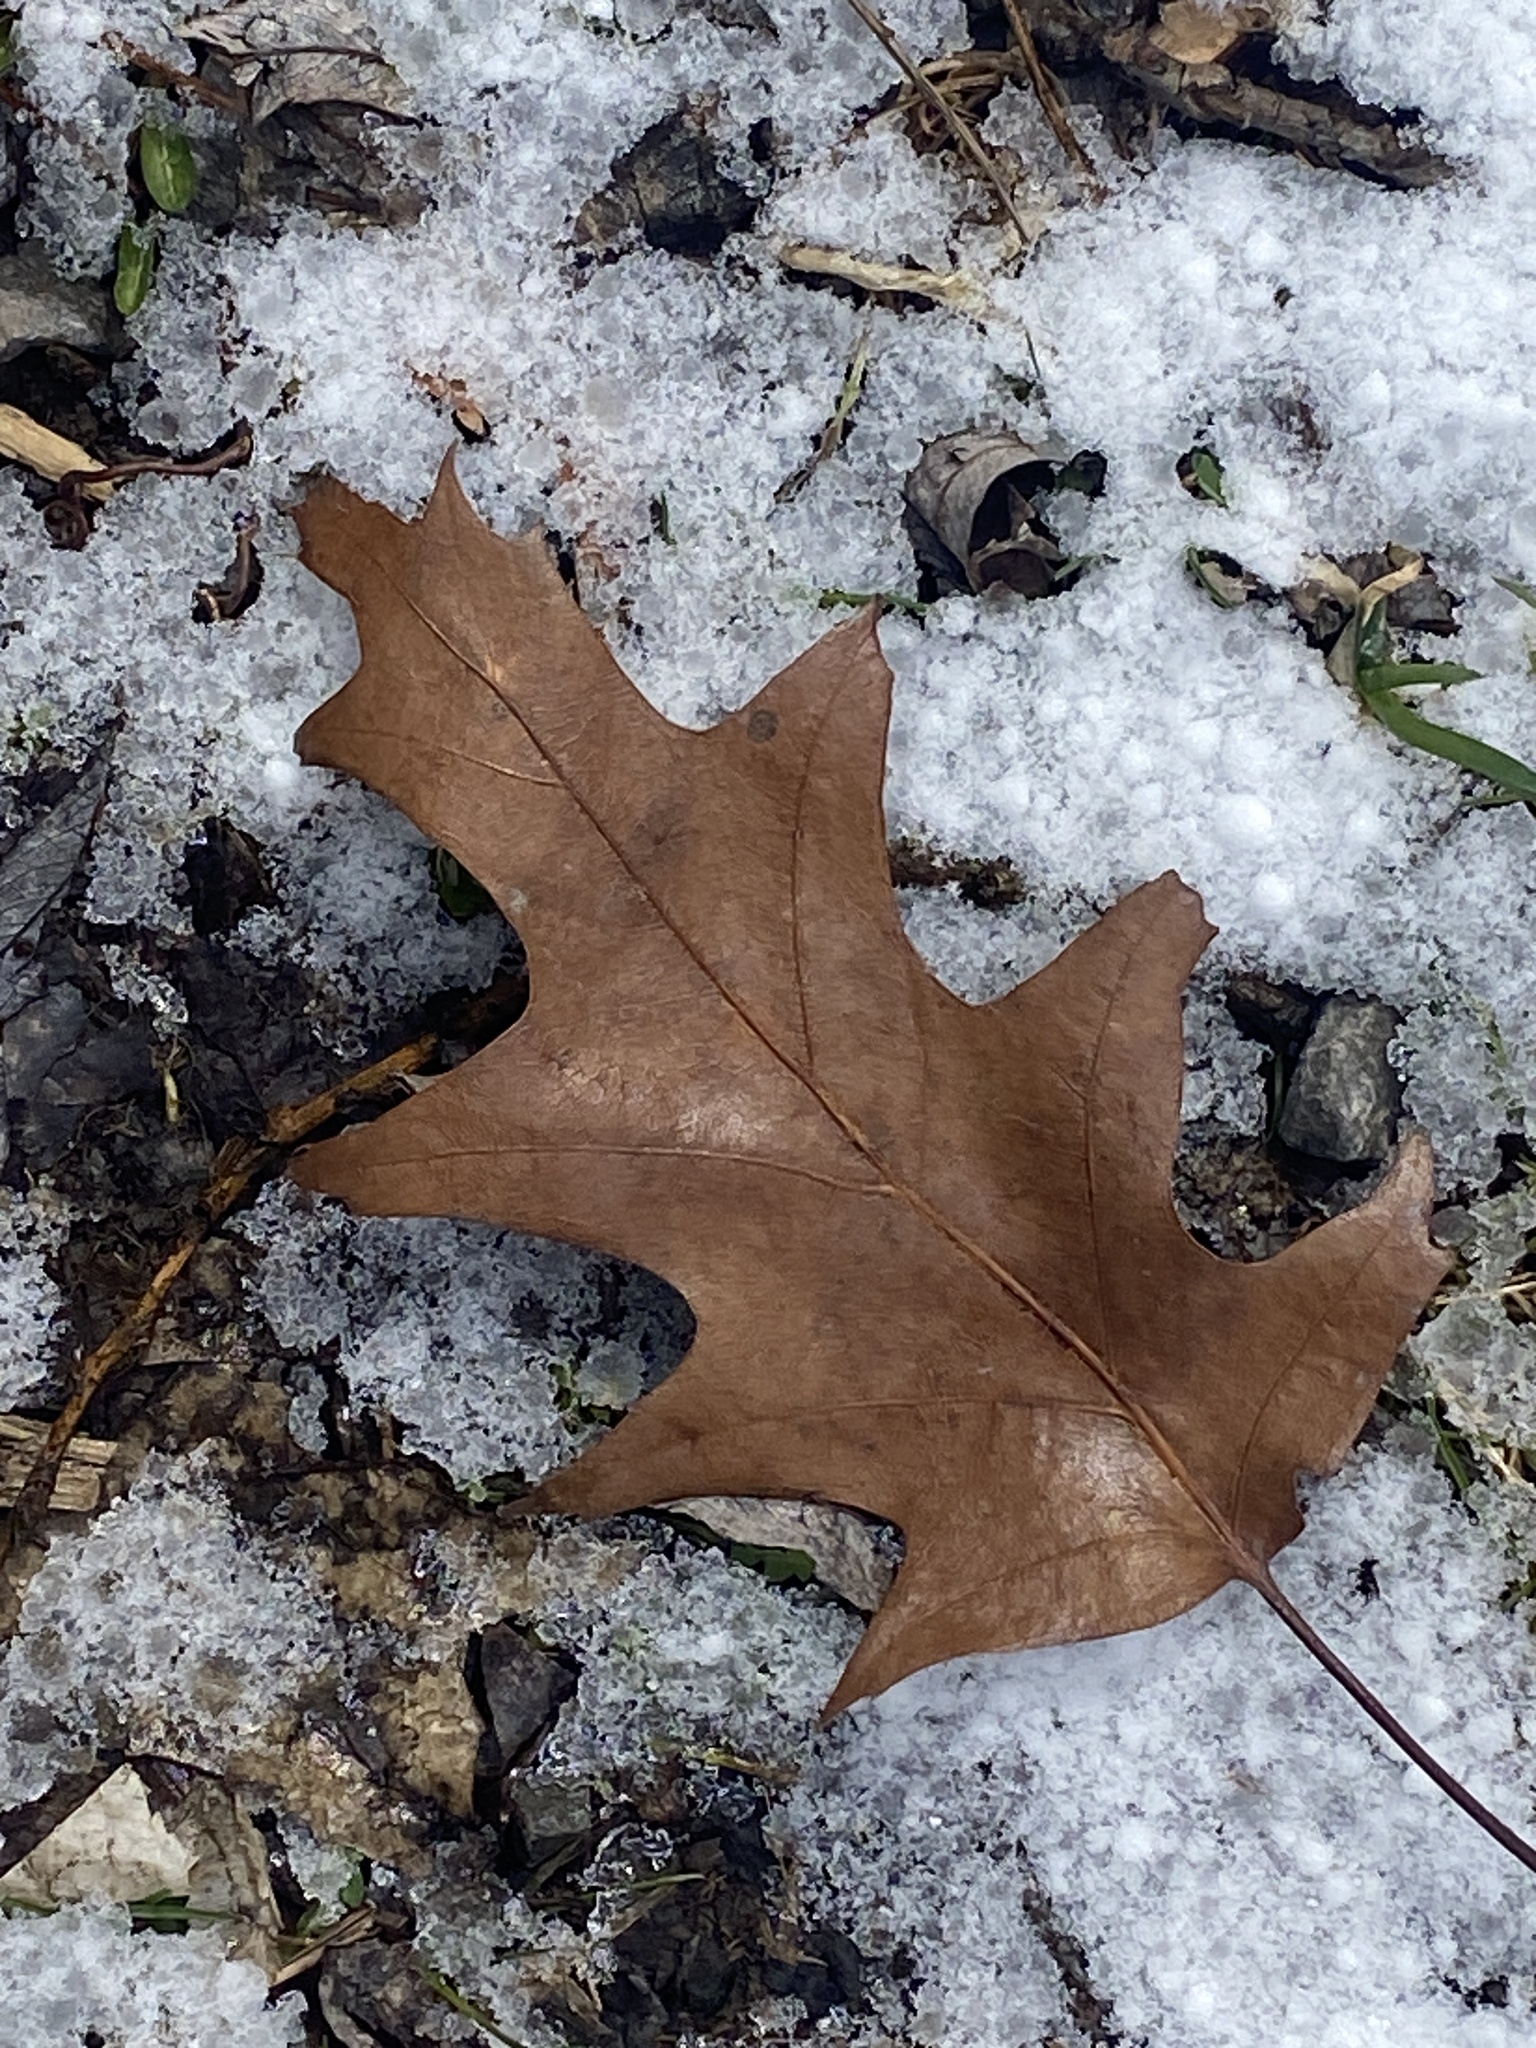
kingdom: Plantae
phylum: Tracheophyta
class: Magnoliopsida
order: Fagales
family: Fagaceae
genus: Quercus
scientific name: Quercus rubra
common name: Red oak
